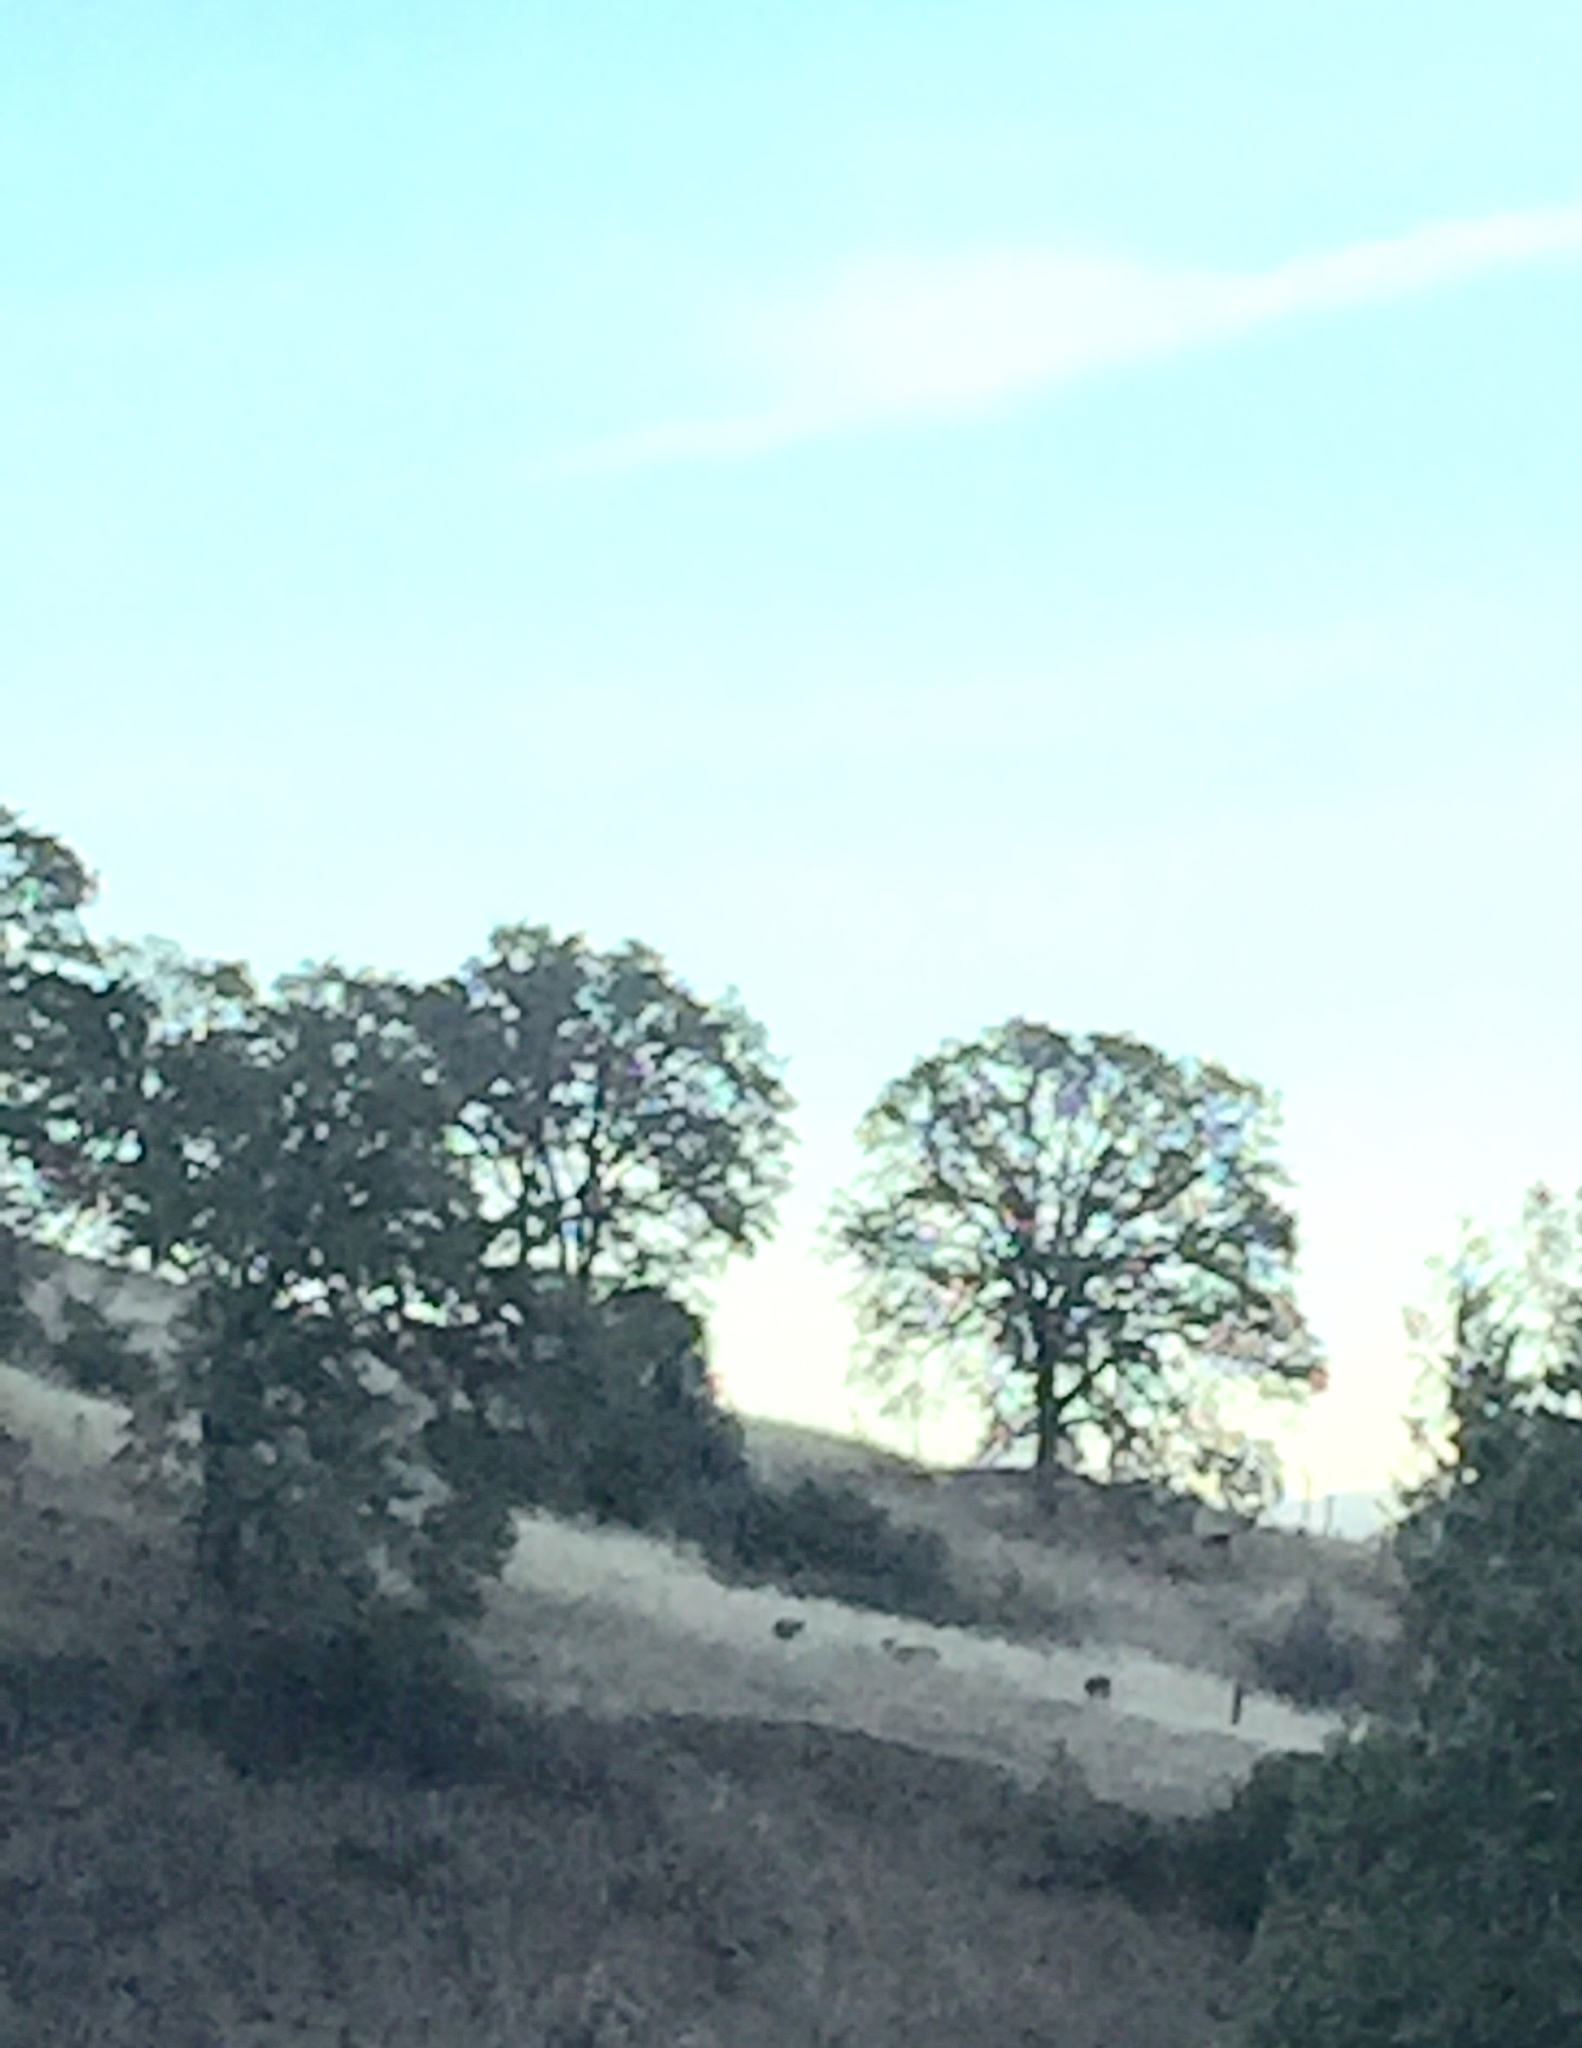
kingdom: Animalia
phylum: Chordata
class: Mammalia
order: Artiodactyla
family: Cervidae
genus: Odocoileus
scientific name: Odocoileus hemionus
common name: Mule deer
